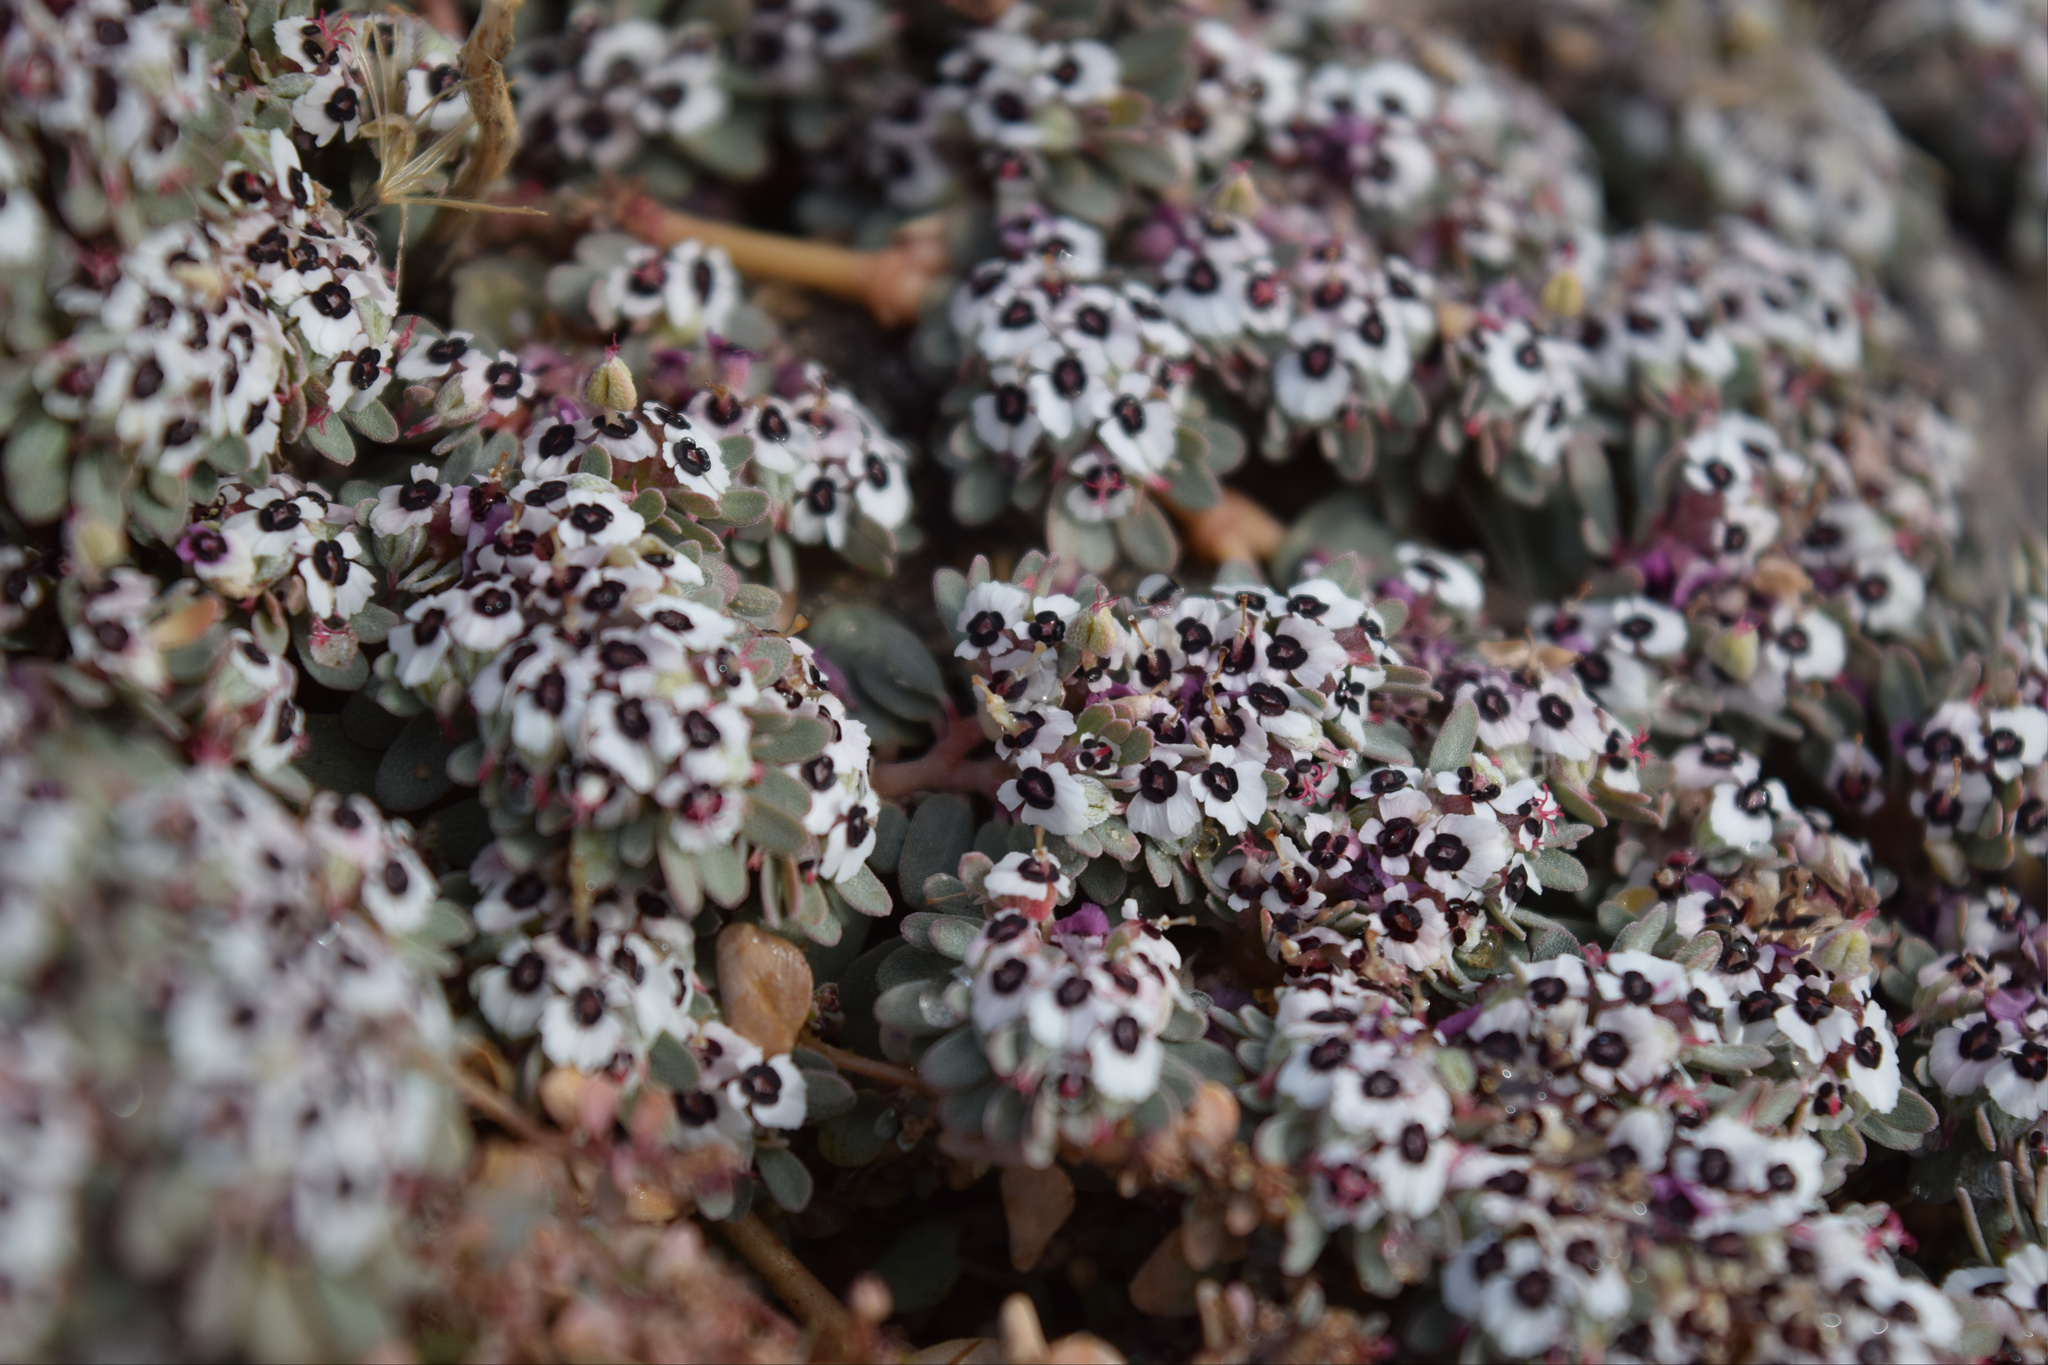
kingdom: Plantae
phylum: Tracheophyta
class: Magnoliopsida
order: Malpighiales
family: Euphorbiaceae
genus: Euphorbia
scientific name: Euphorbia pediculifera
